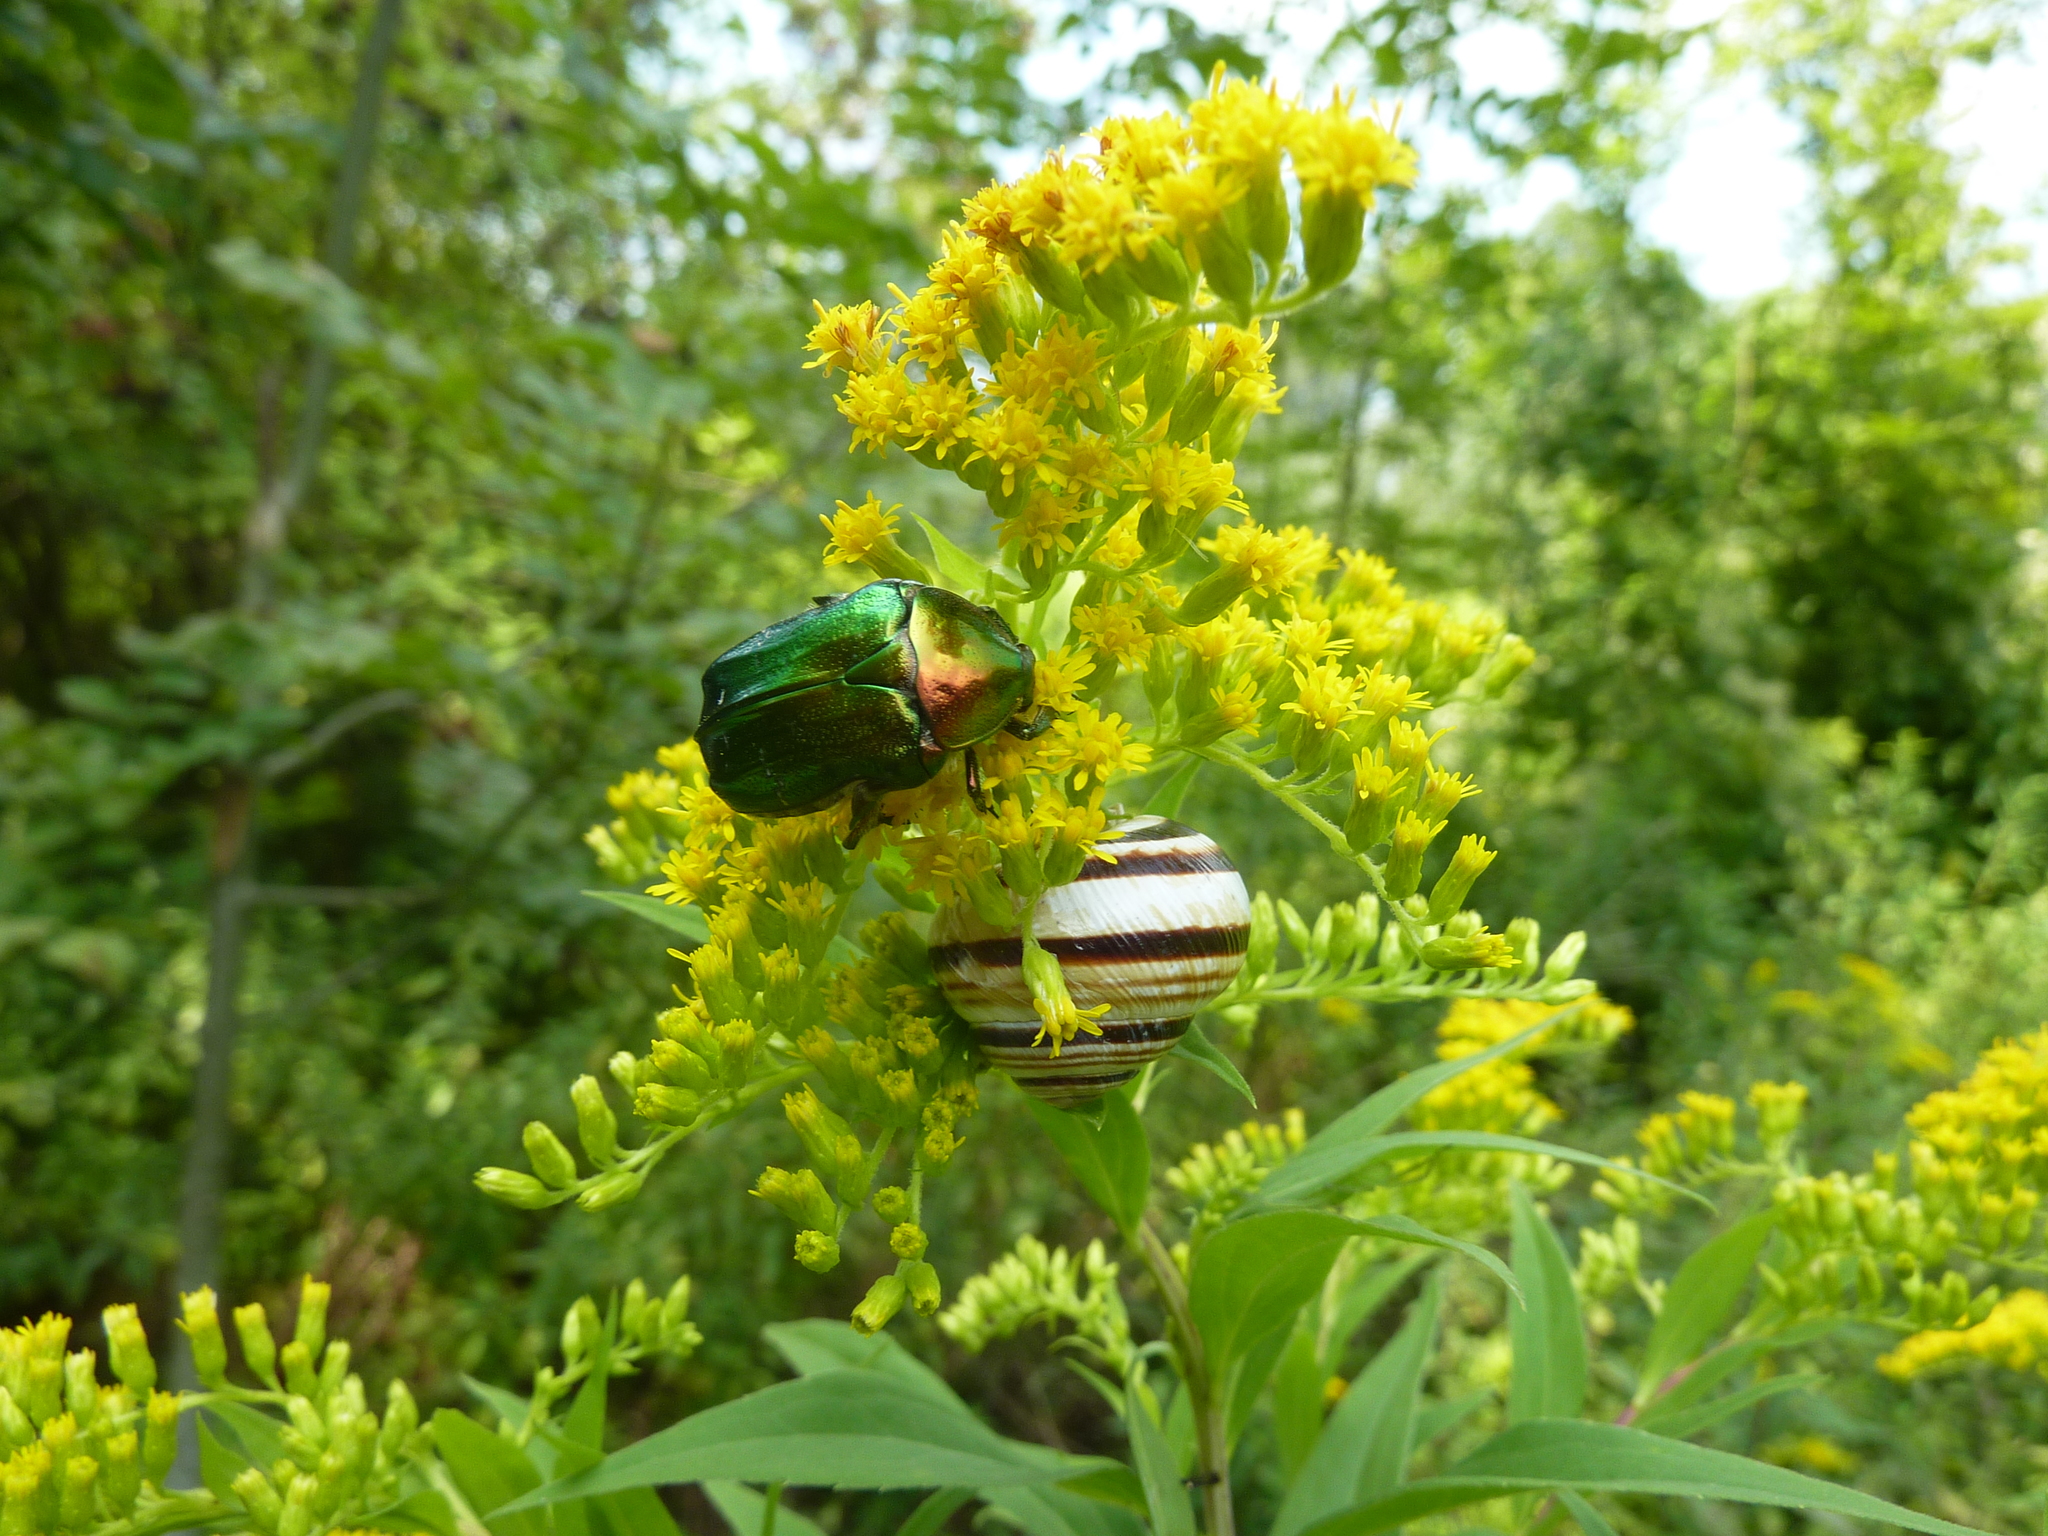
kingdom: Animalia
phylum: Arthropoda
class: Insecta
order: Coleoptera
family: Scarabaeidae
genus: Cetonia
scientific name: Cetonia aurata
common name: Rose chafer
